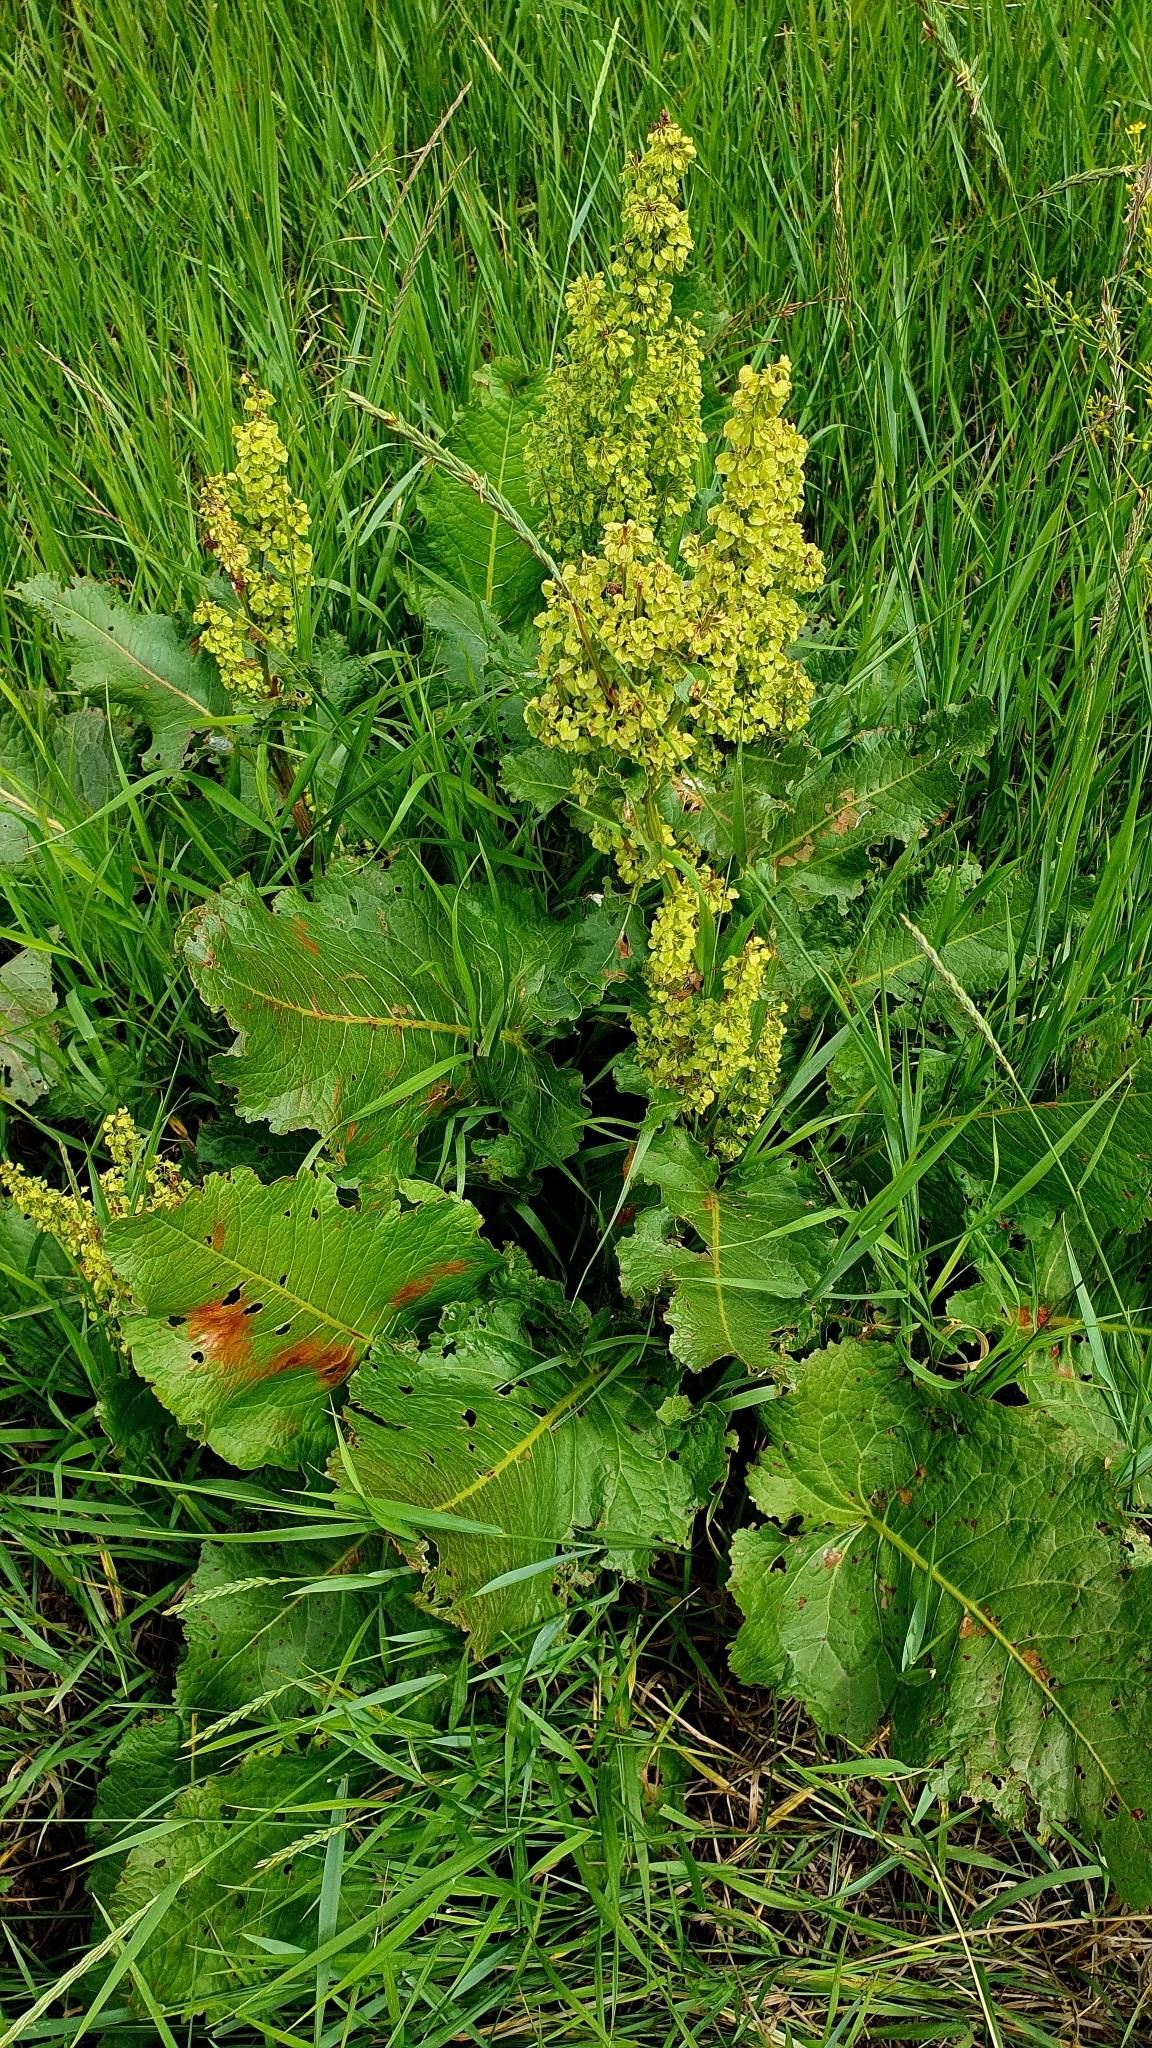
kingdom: Plantae
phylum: Tracheophyta
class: Magnoliopsida
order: Caryophyllales
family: Polygonaceae
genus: Rumex
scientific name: Rumex confertus
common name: Russian dock
